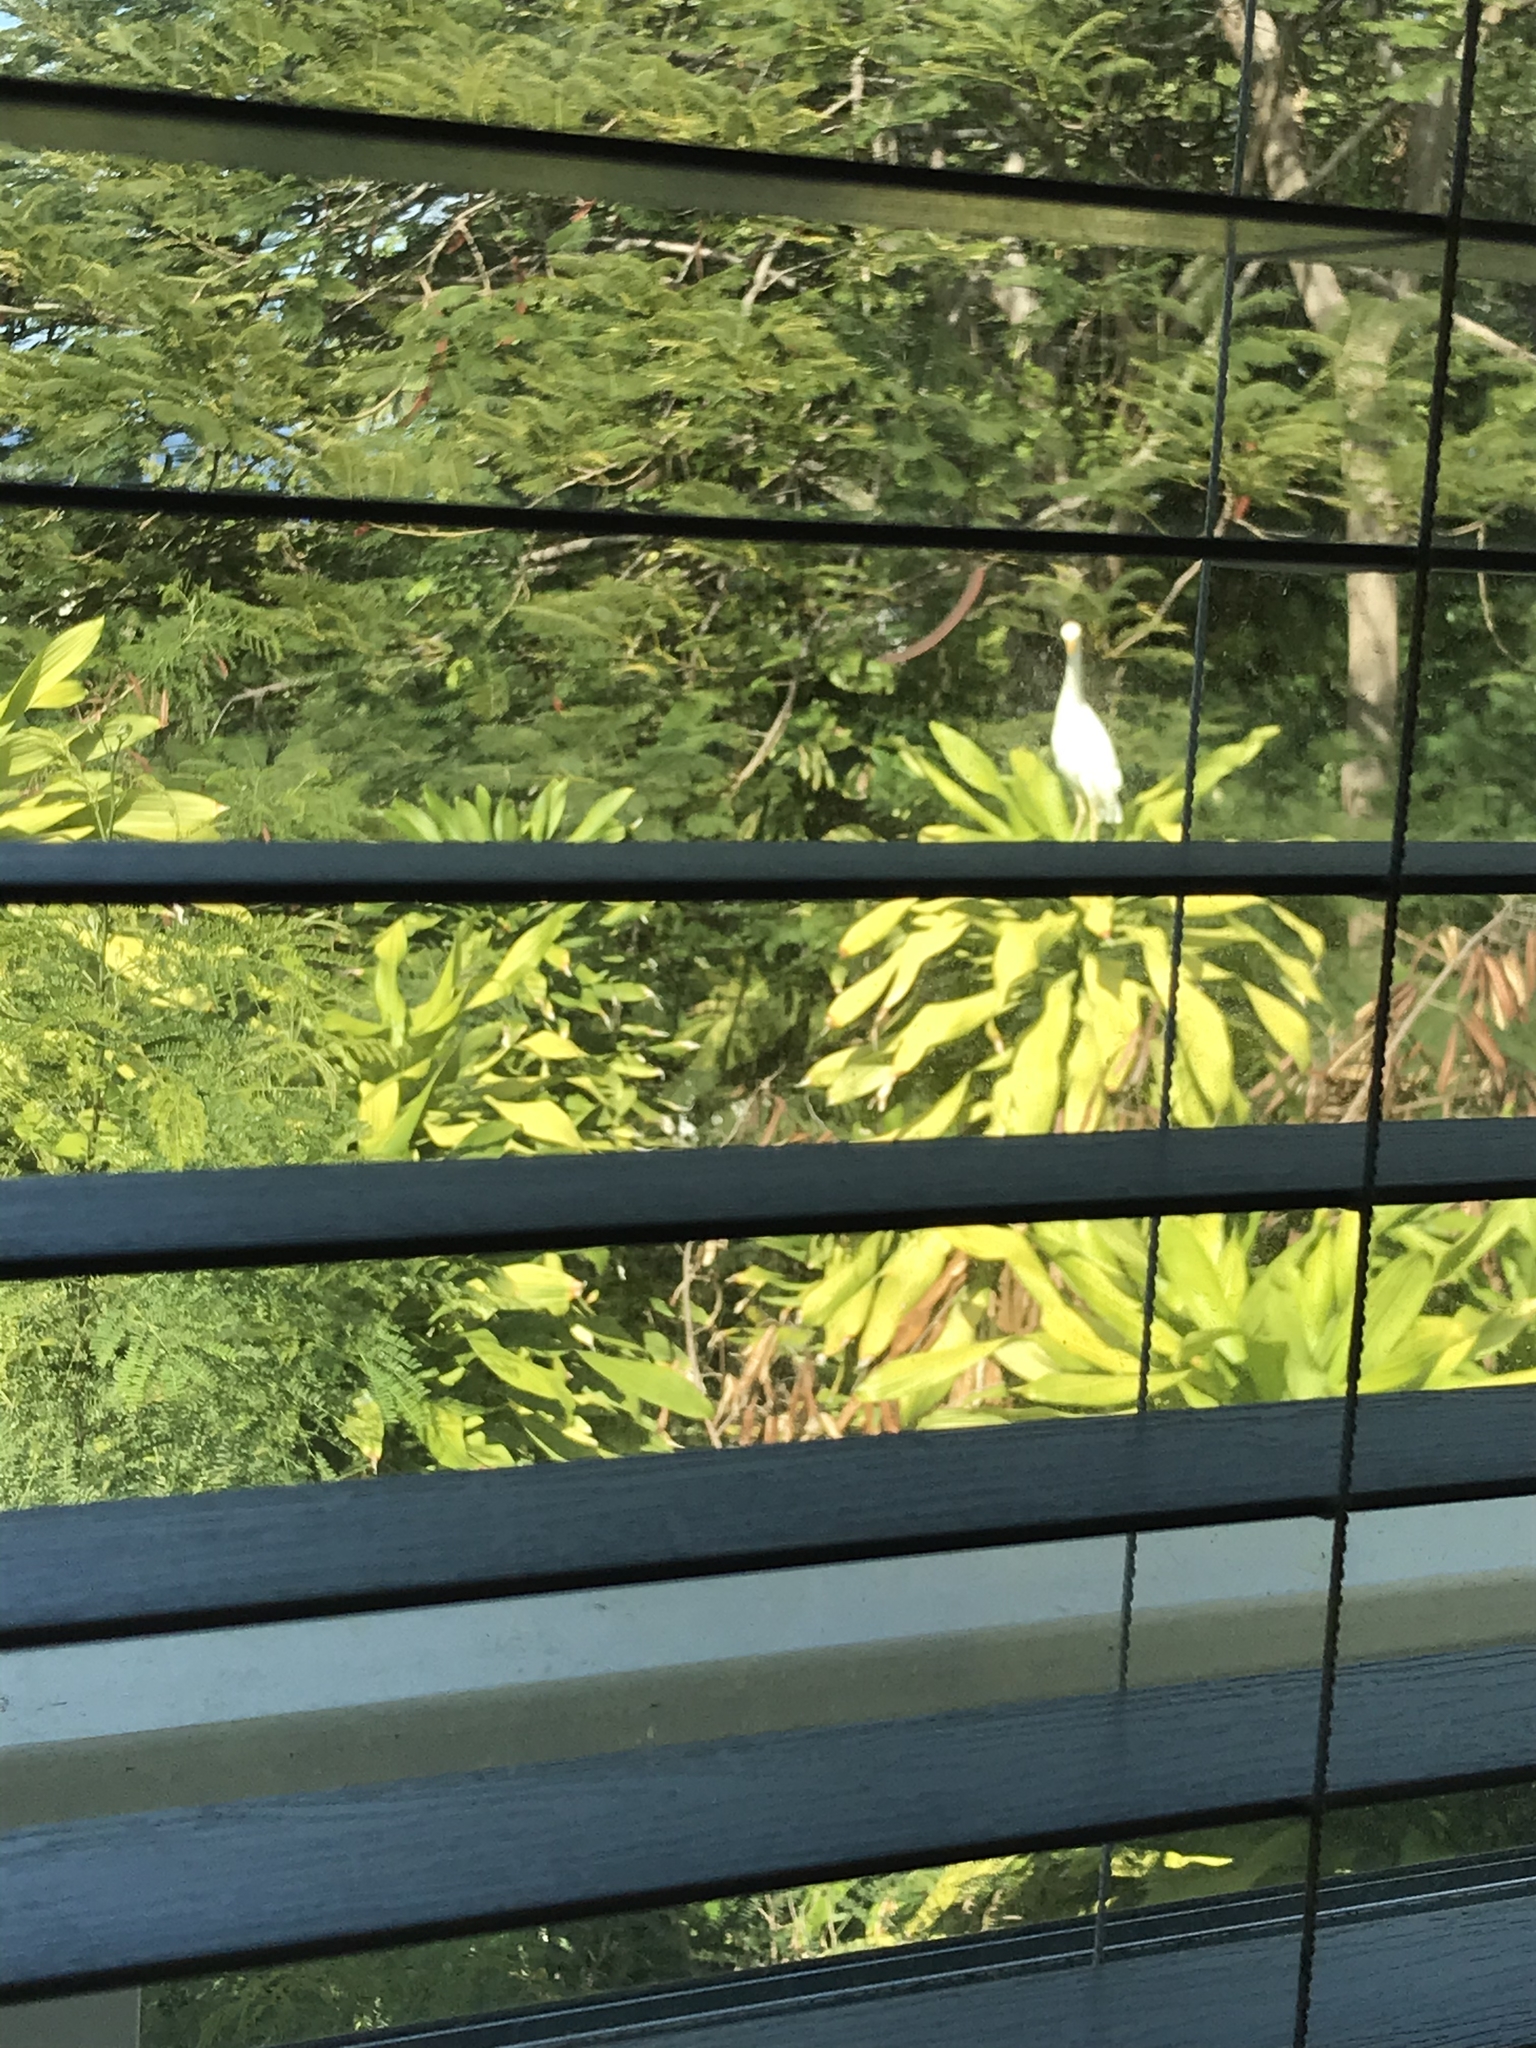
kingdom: Animalia
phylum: Chordata
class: Aves
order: Pelecaniformes
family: Ardeidae
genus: Bubulcus
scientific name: Bubulcus ibis
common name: Cattle egret
